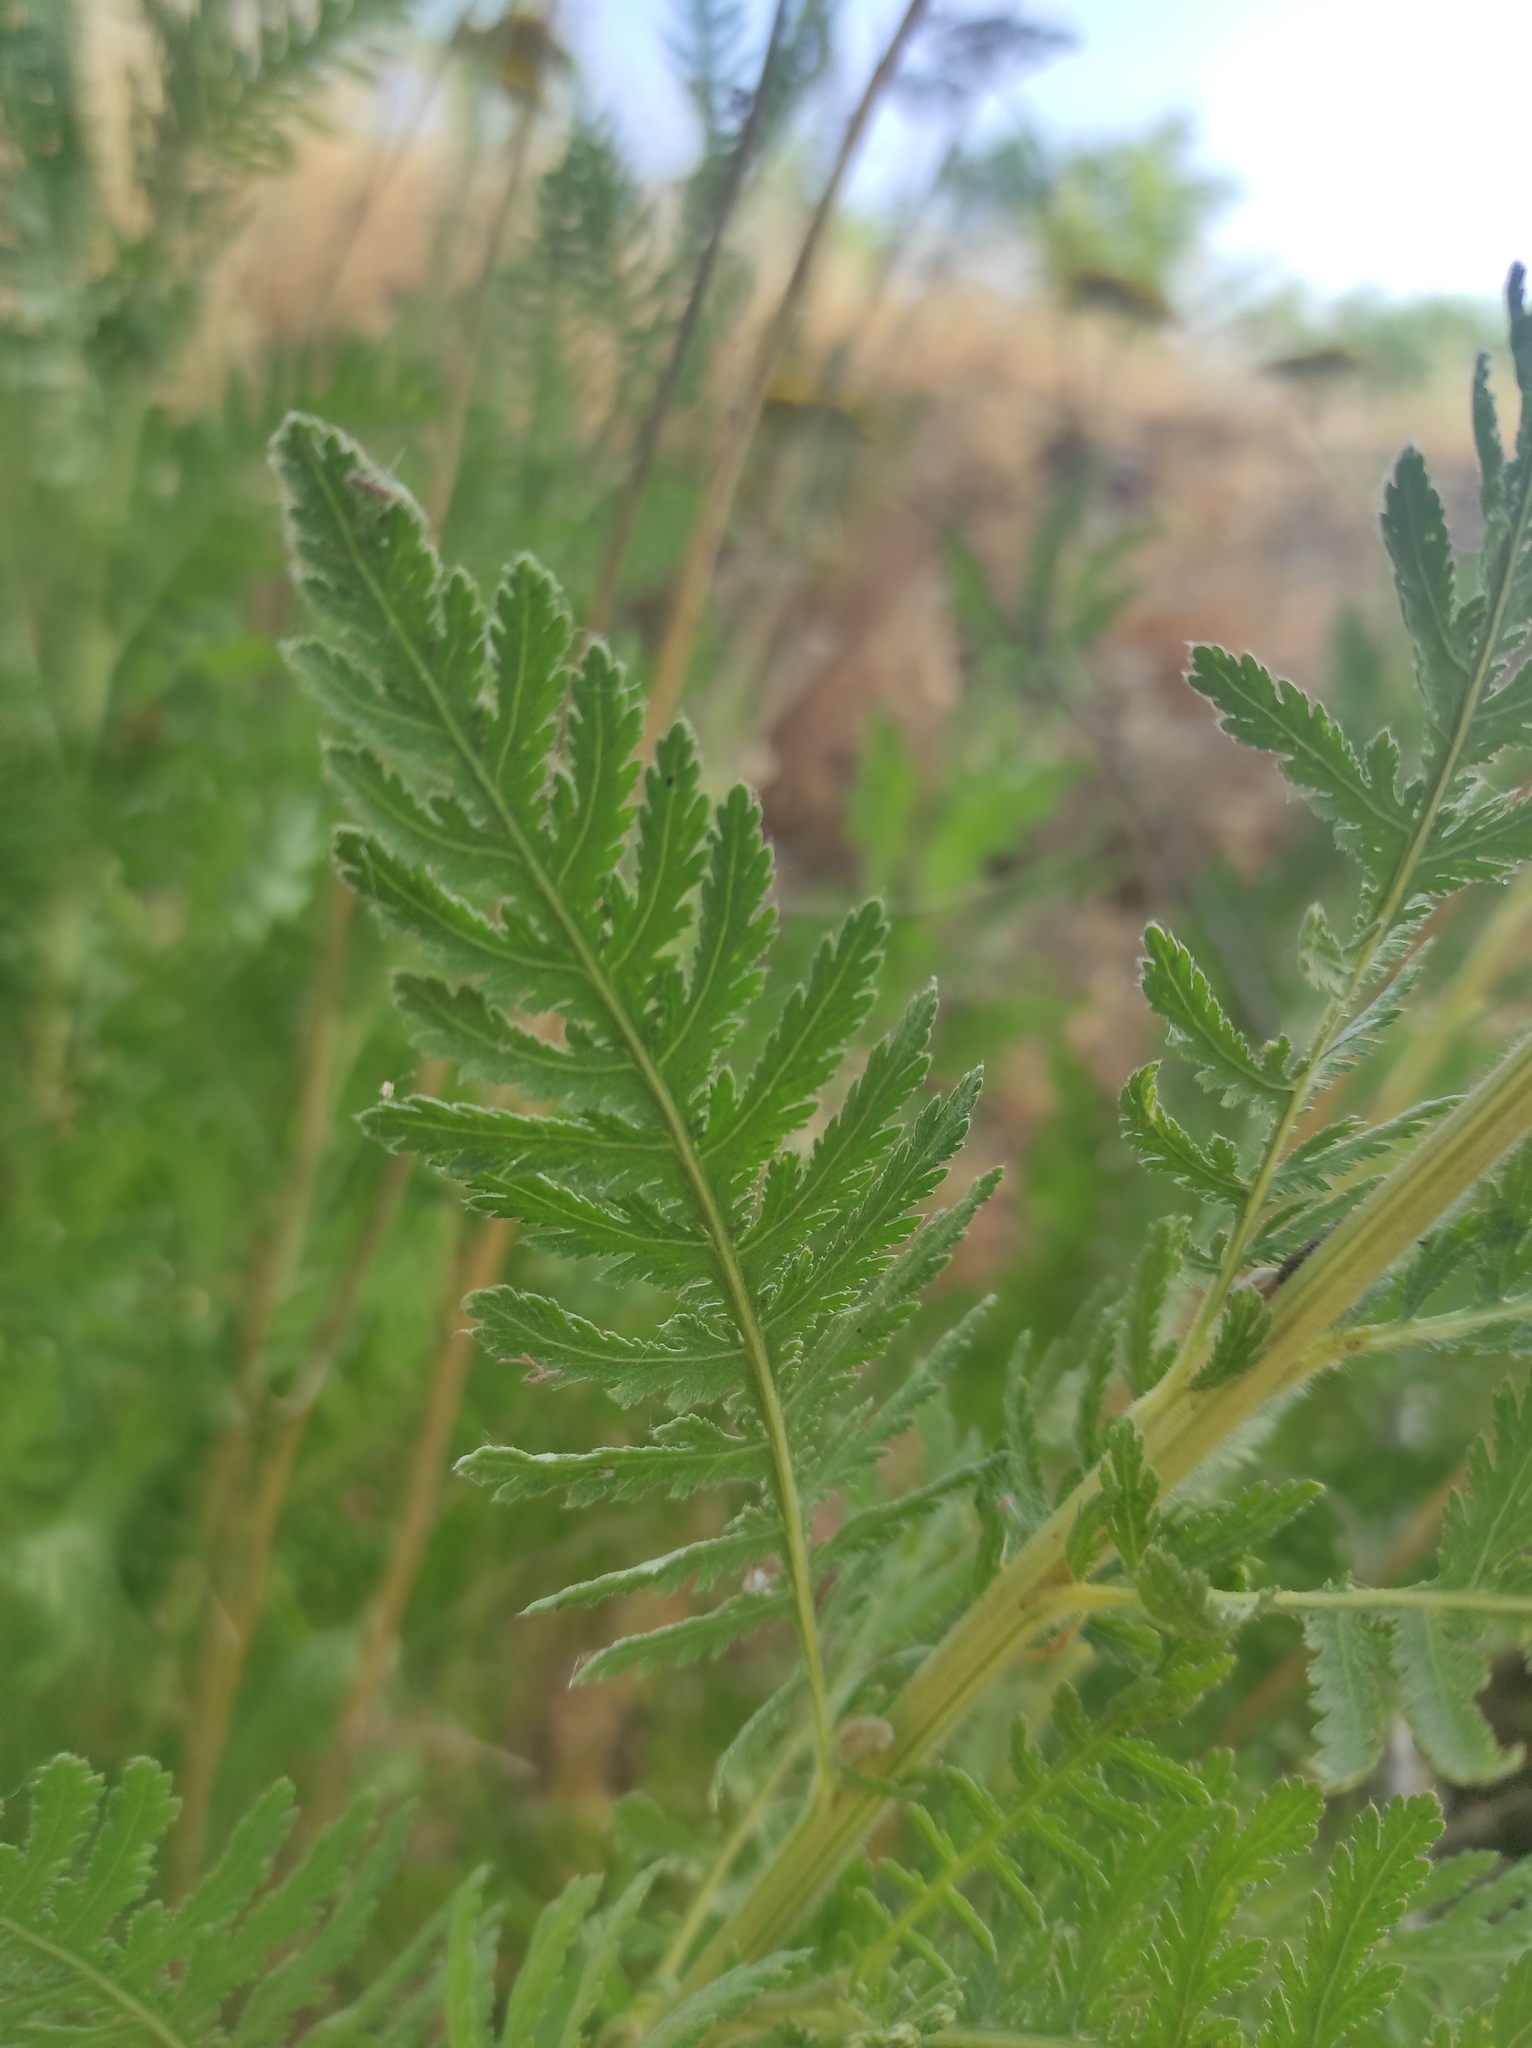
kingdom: Plantae
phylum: Tracheophyta
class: Magnoliopsida
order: Asterales
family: Asteraceae
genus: Achillea
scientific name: Achillea filipendulina
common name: Fernleaf yarrow
